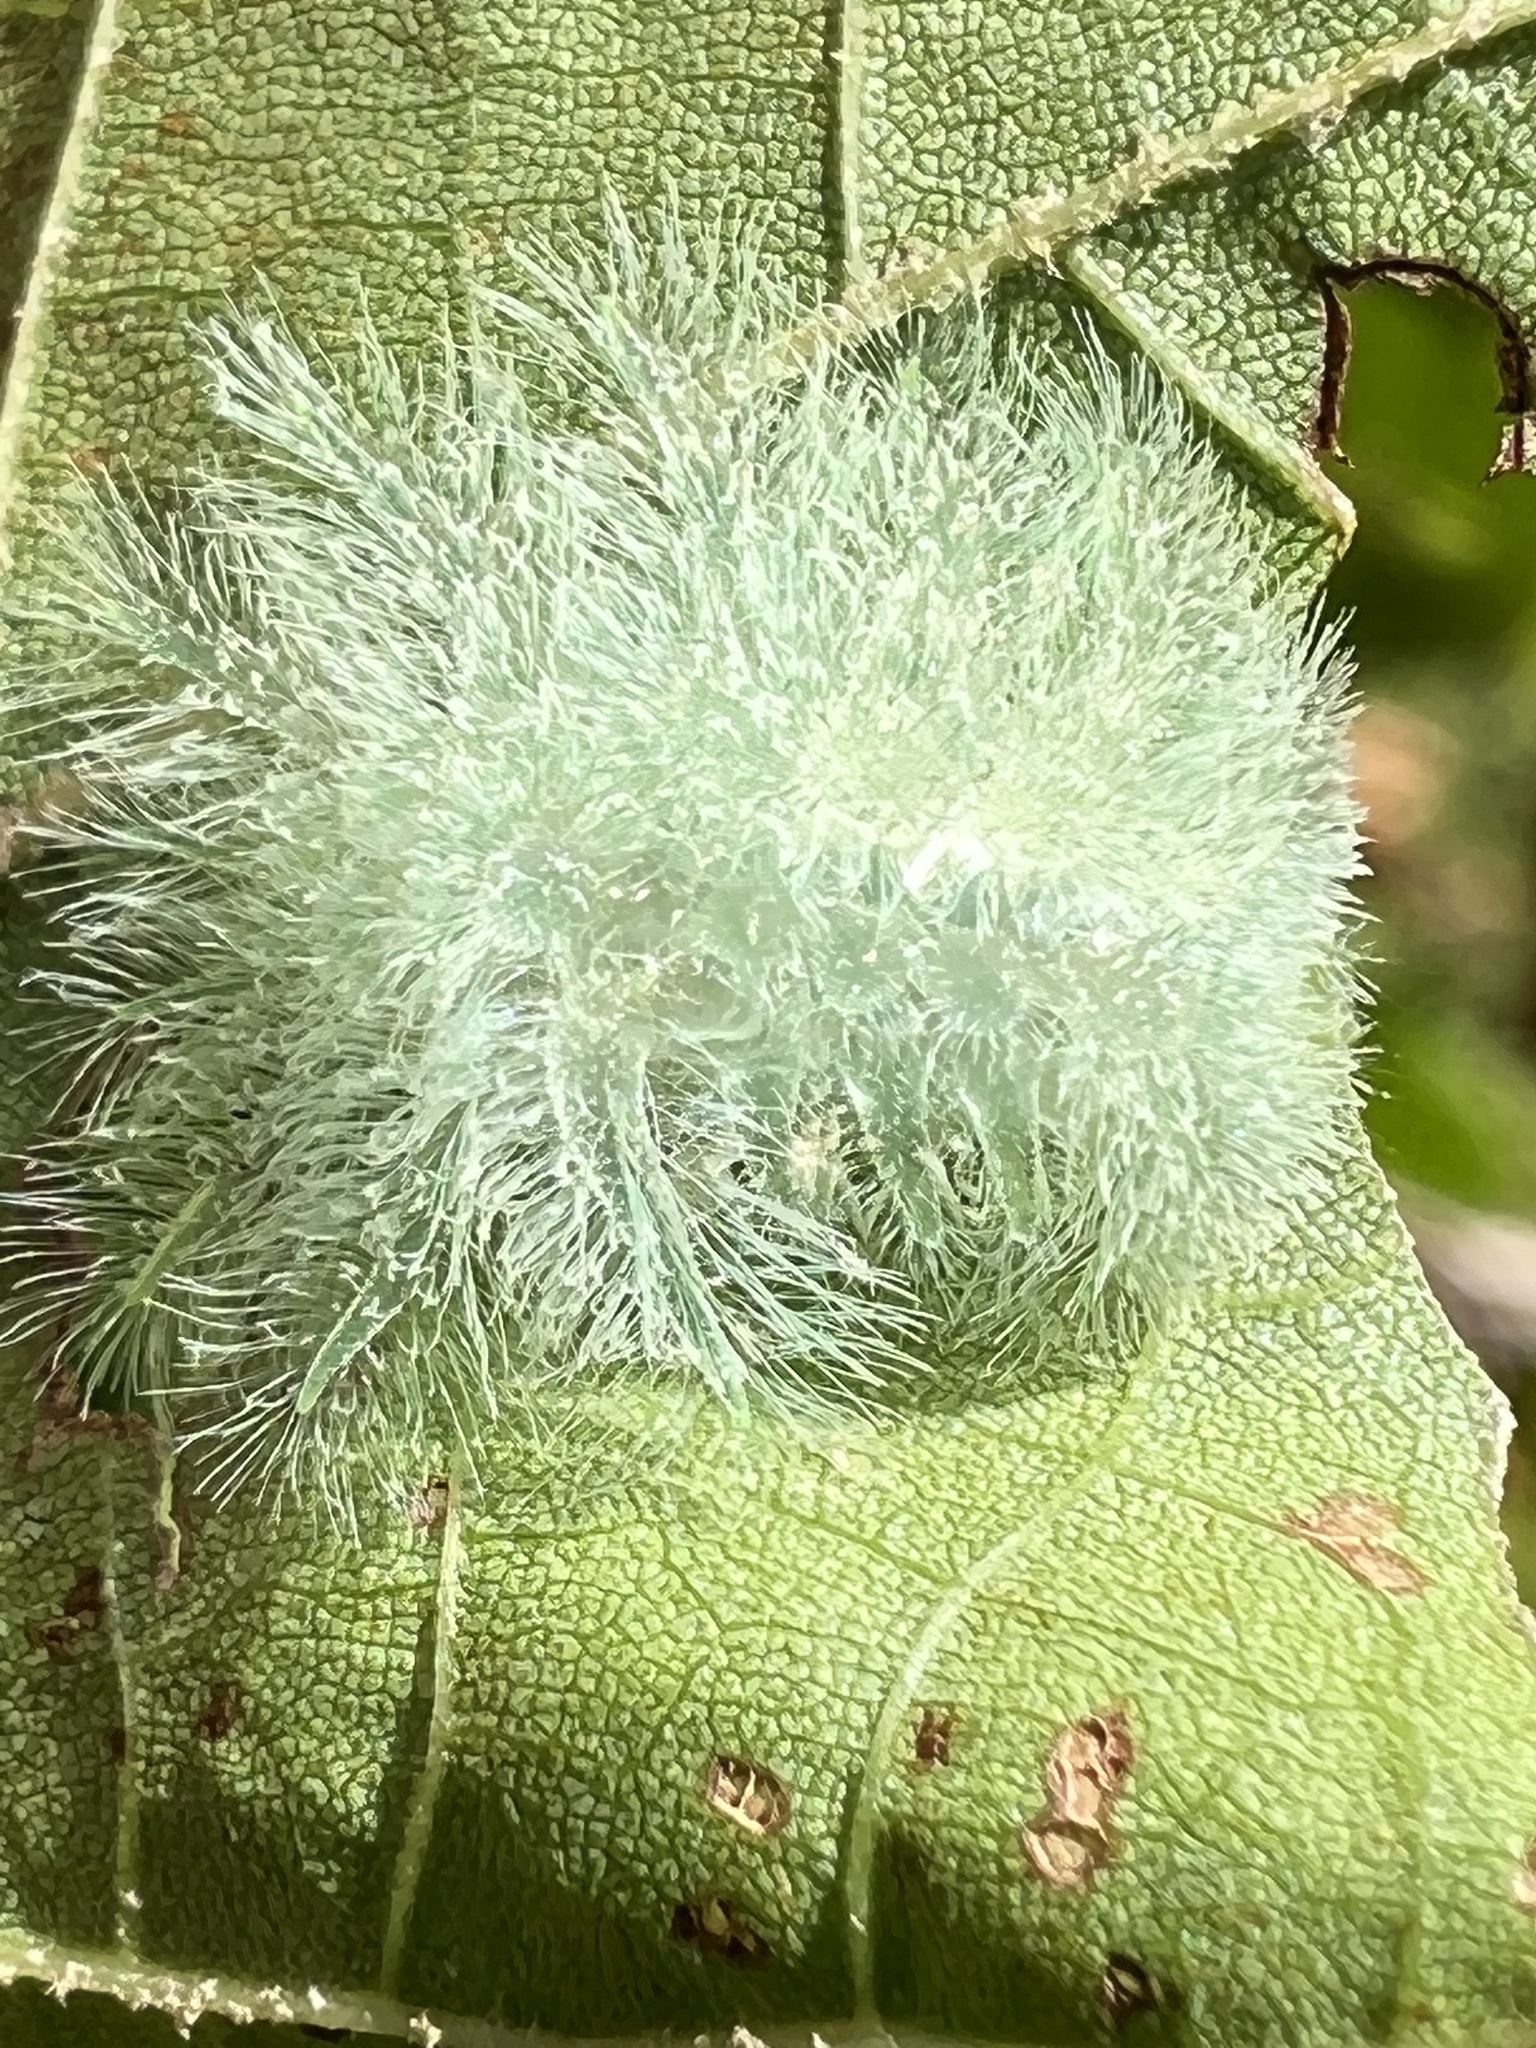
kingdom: Animalia
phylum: Arthropoda
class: Insecta
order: Lepidoptera
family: Limacodidae
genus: Isochaetes
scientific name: Isochaetes beutenmuelleri
